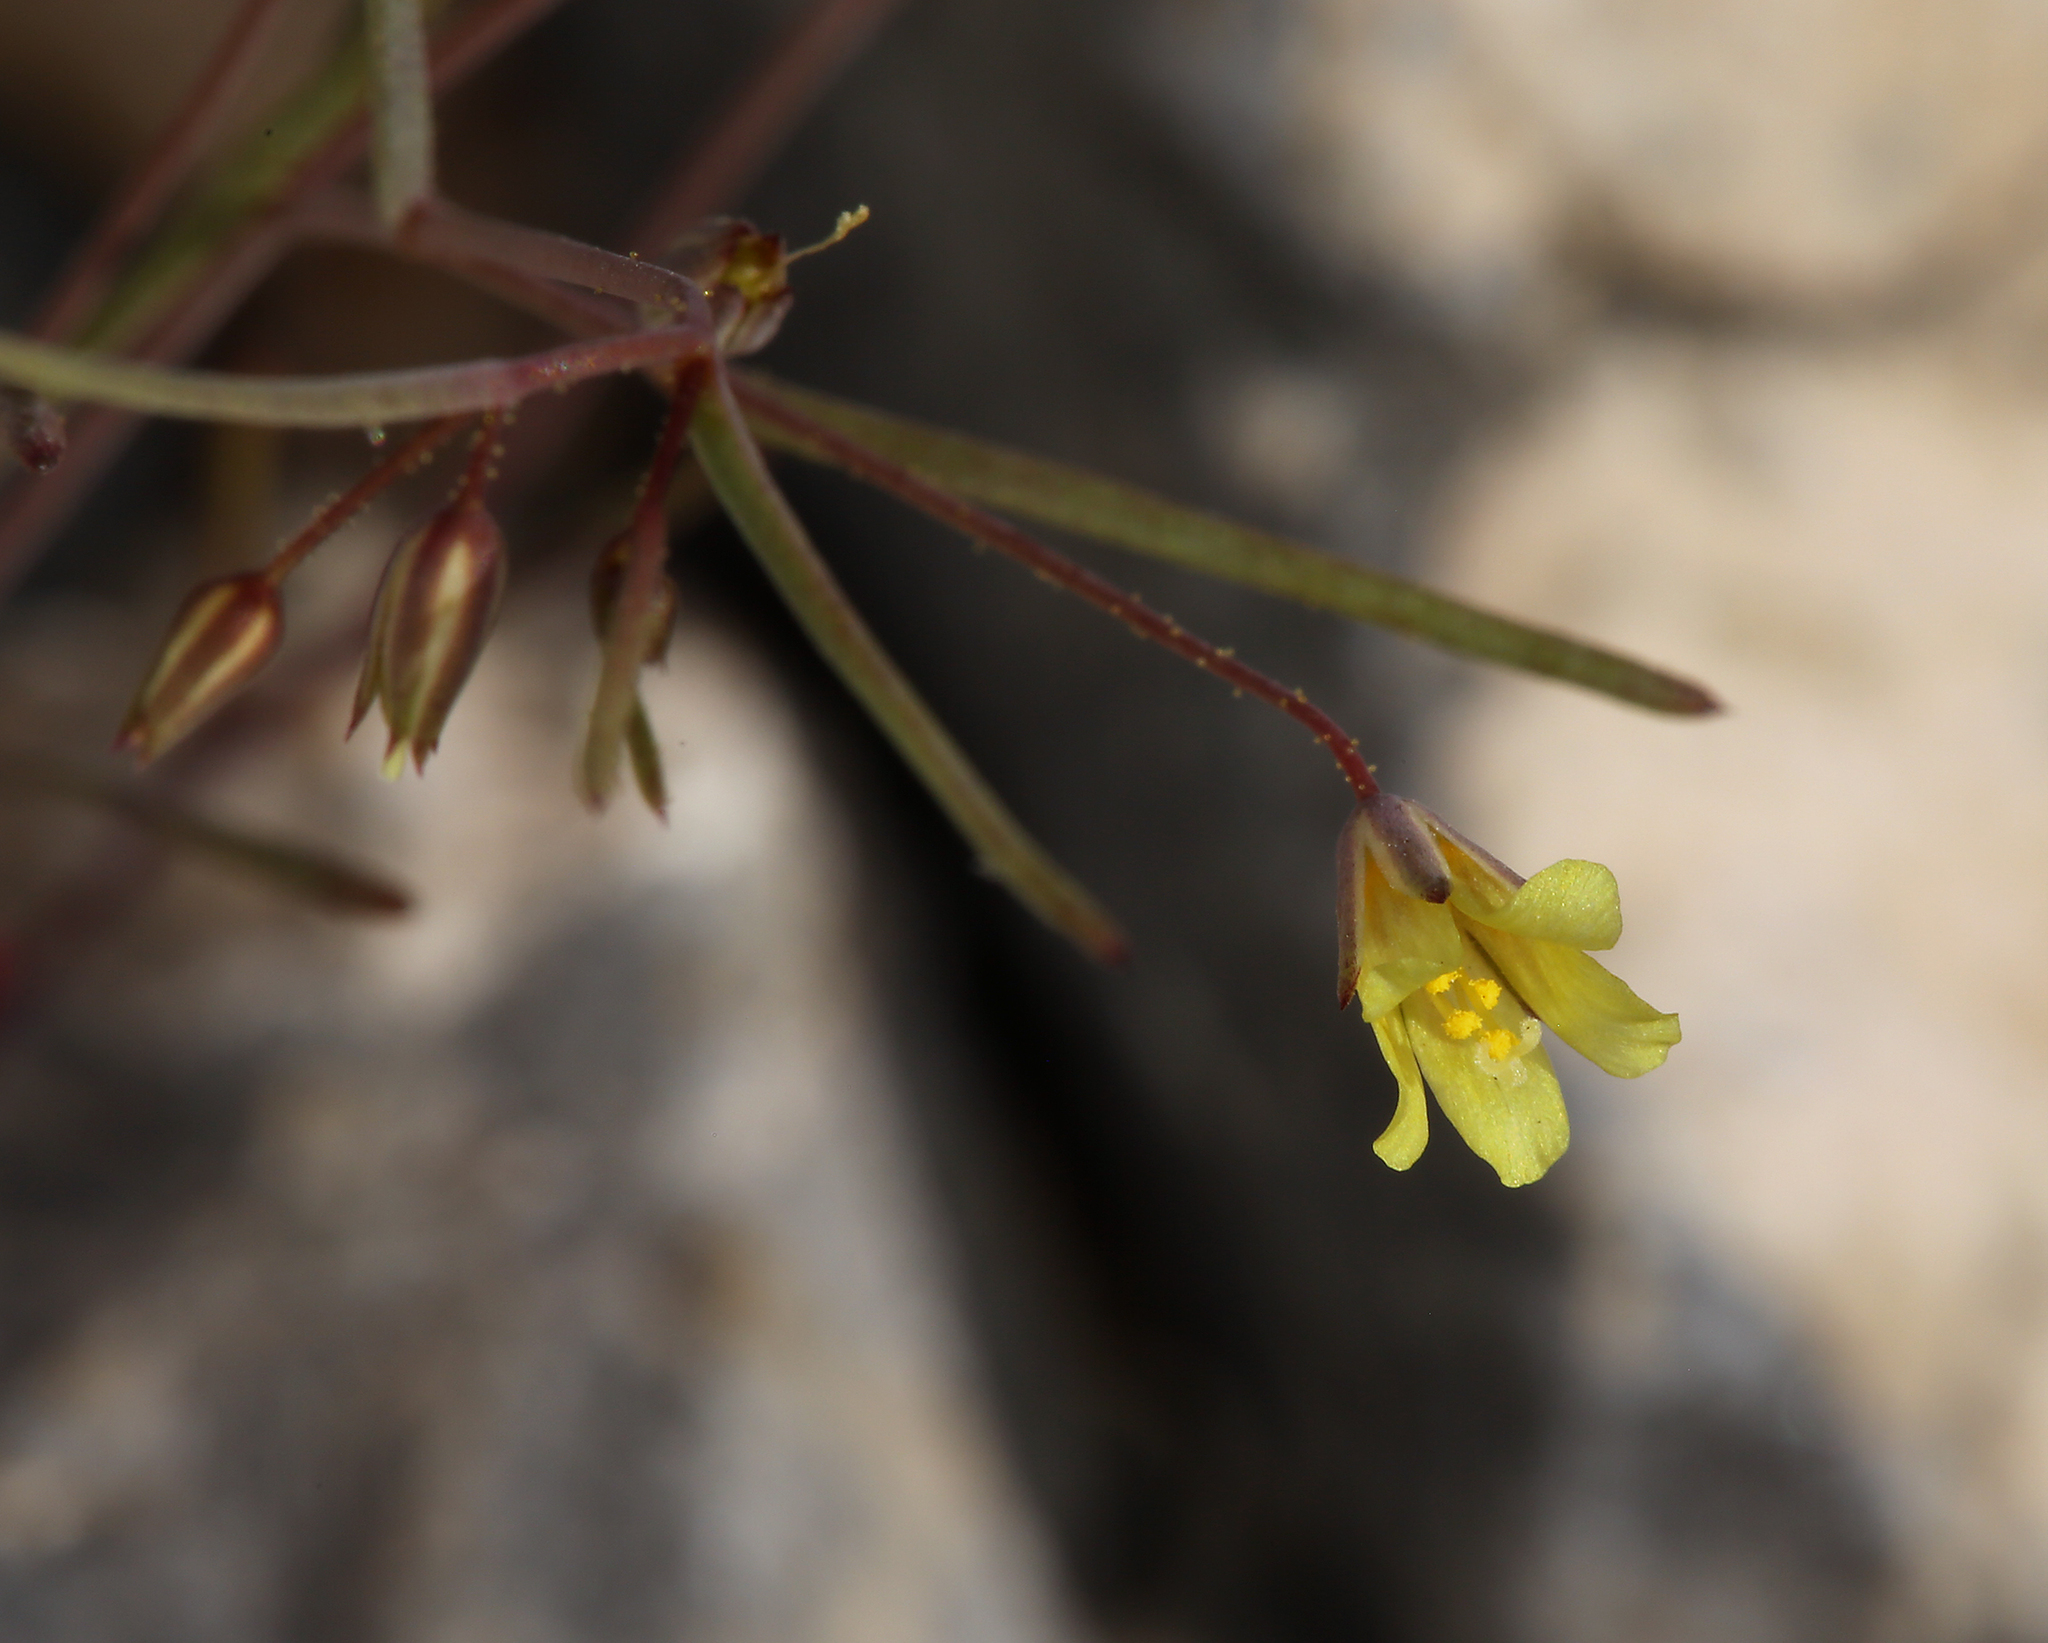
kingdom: Plantae
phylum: Tracheophyta
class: Magnoliopsida
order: Ericales
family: Polemoniaceae
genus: Linanthus
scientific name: Linanthus filiformis
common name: Yellow gilia
